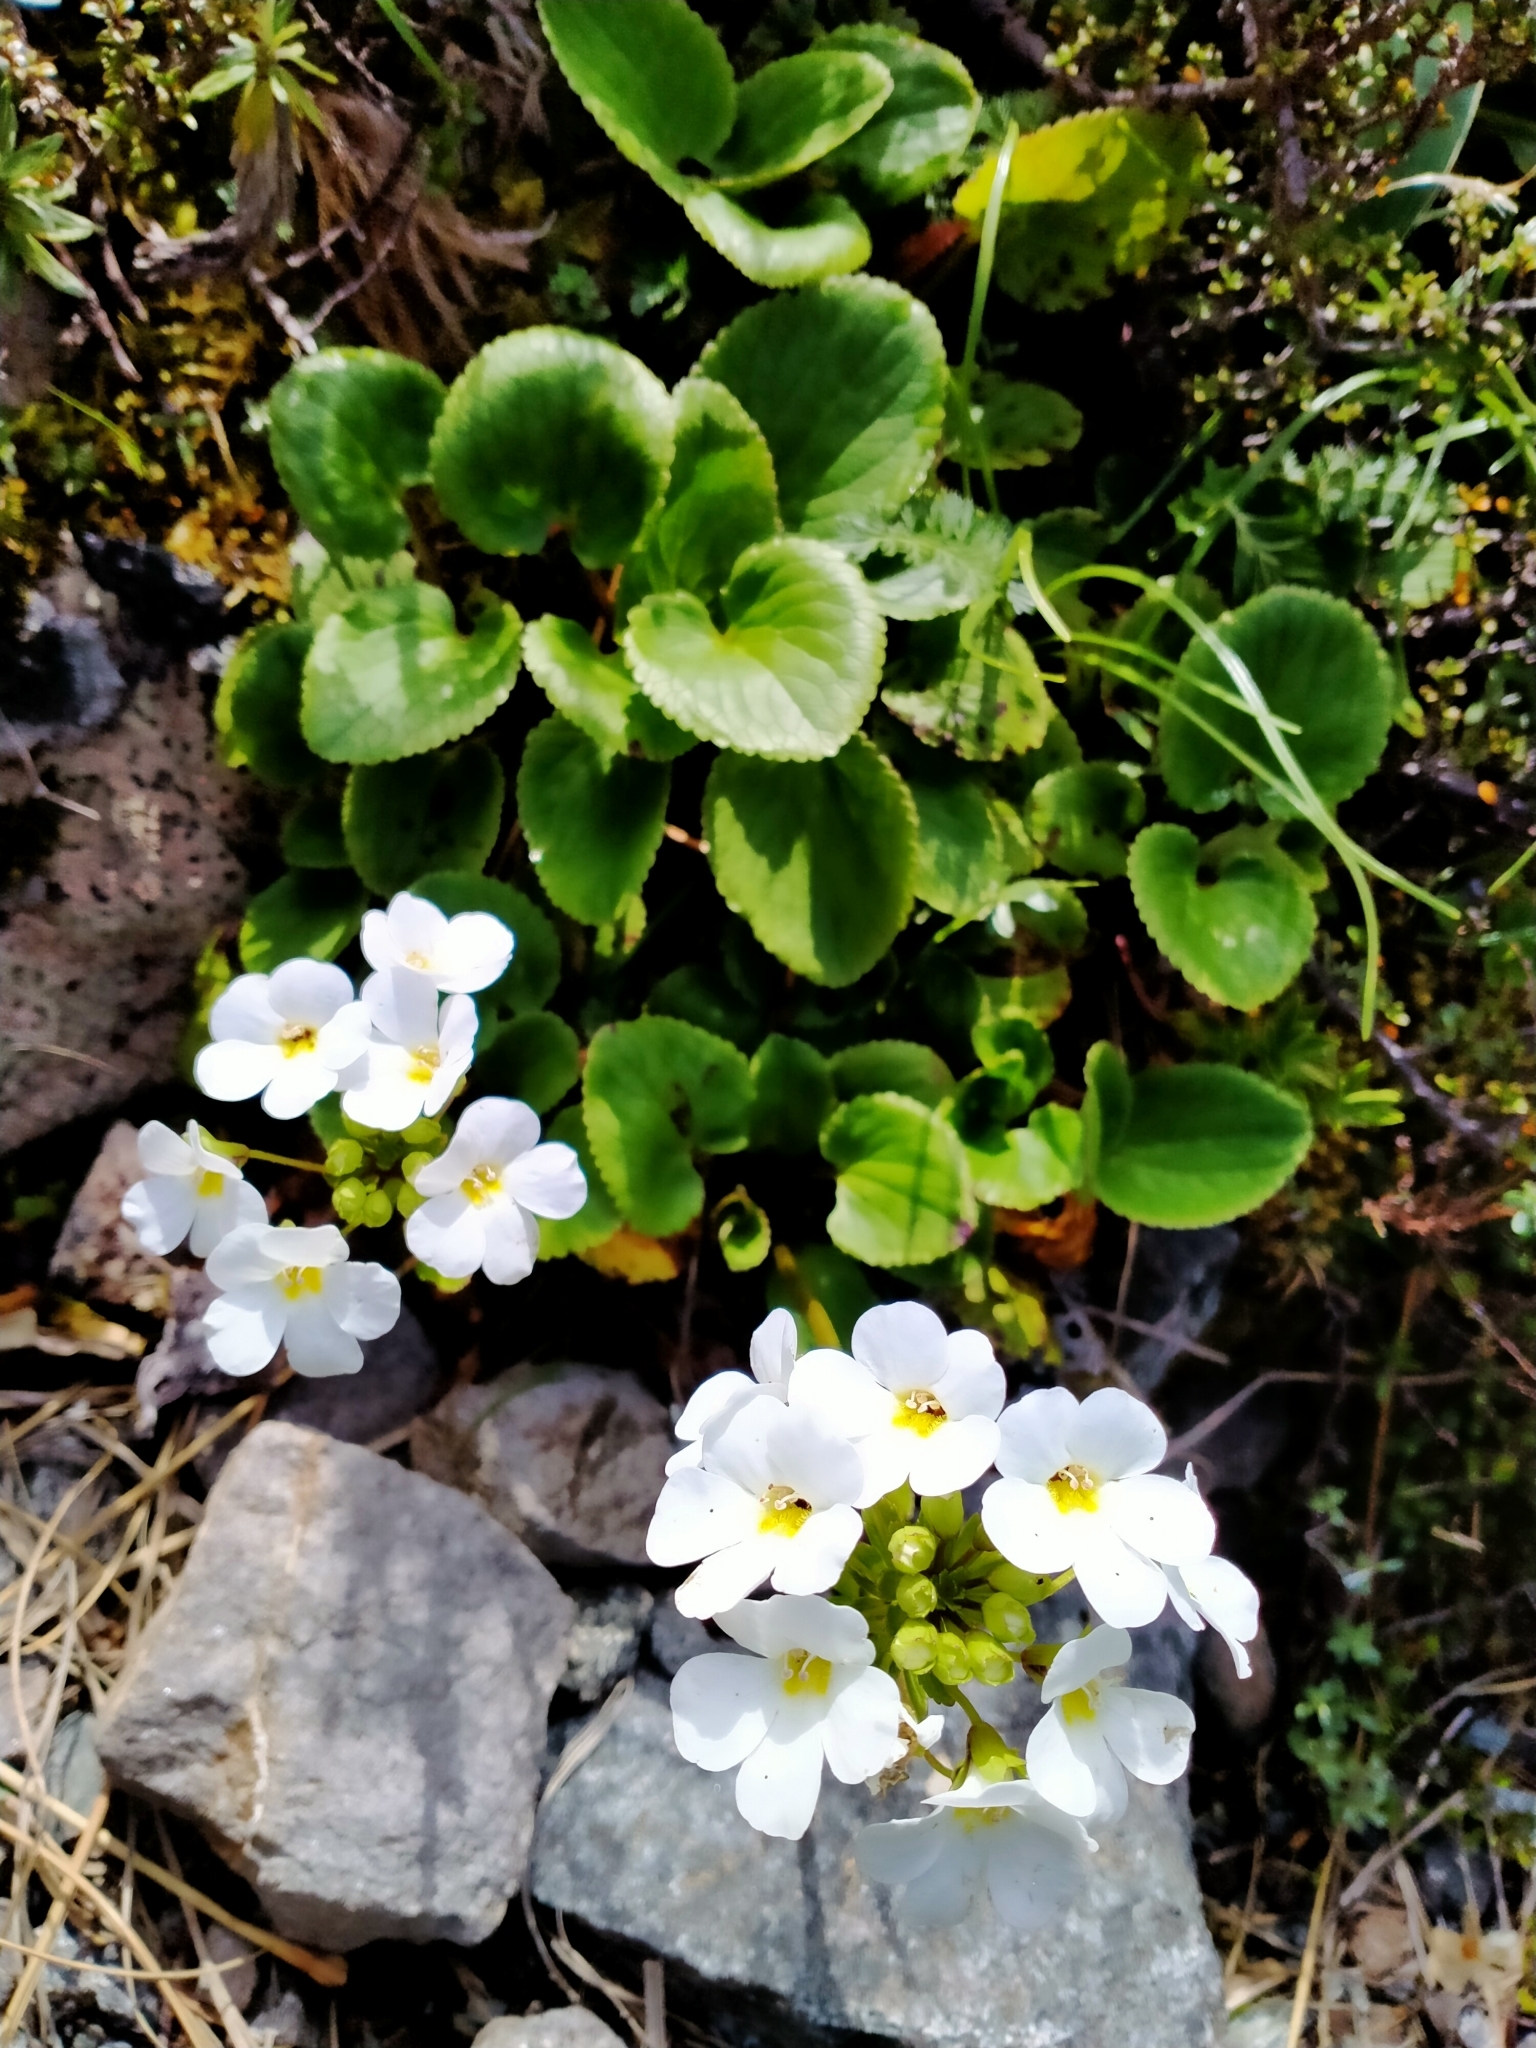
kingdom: Plantae
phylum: Tracheophyta
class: Magnoliopsida
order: Lamiales
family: Plantaginaceae
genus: Ourisia
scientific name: Ourisia macrocarpa
